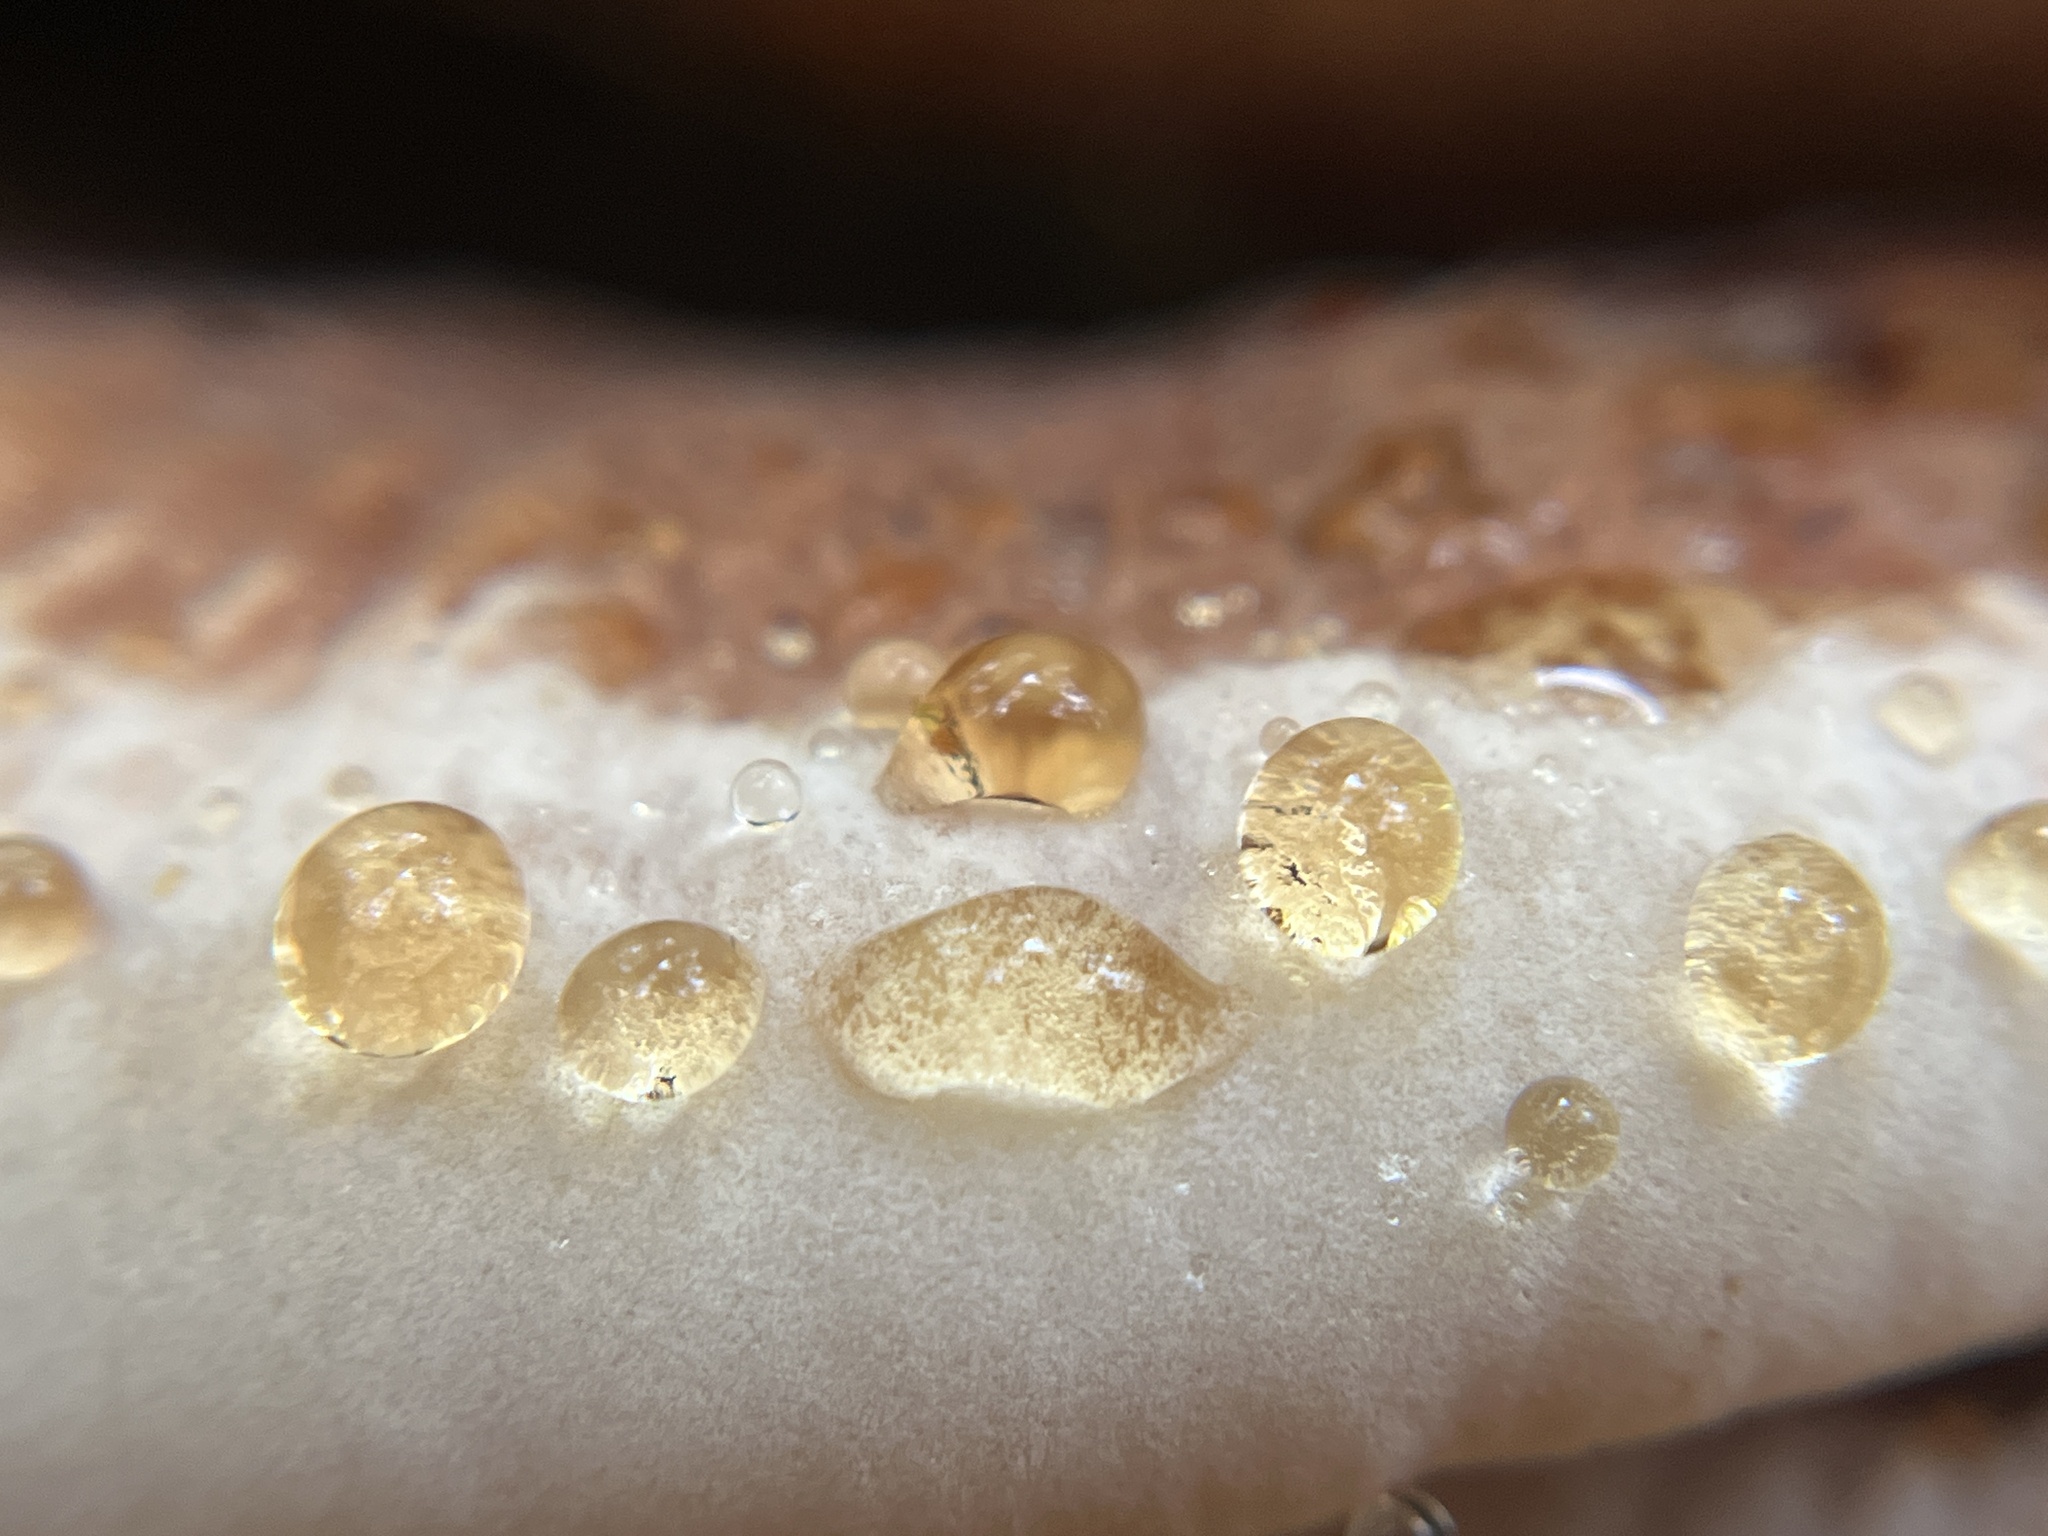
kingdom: Fungi
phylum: Basidiomycota
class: Agaricomycetes
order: Polyporales
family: Ischnodermataceae
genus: Ischnoderma
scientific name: Ischnoderma resinosum
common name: Resinous polypore
